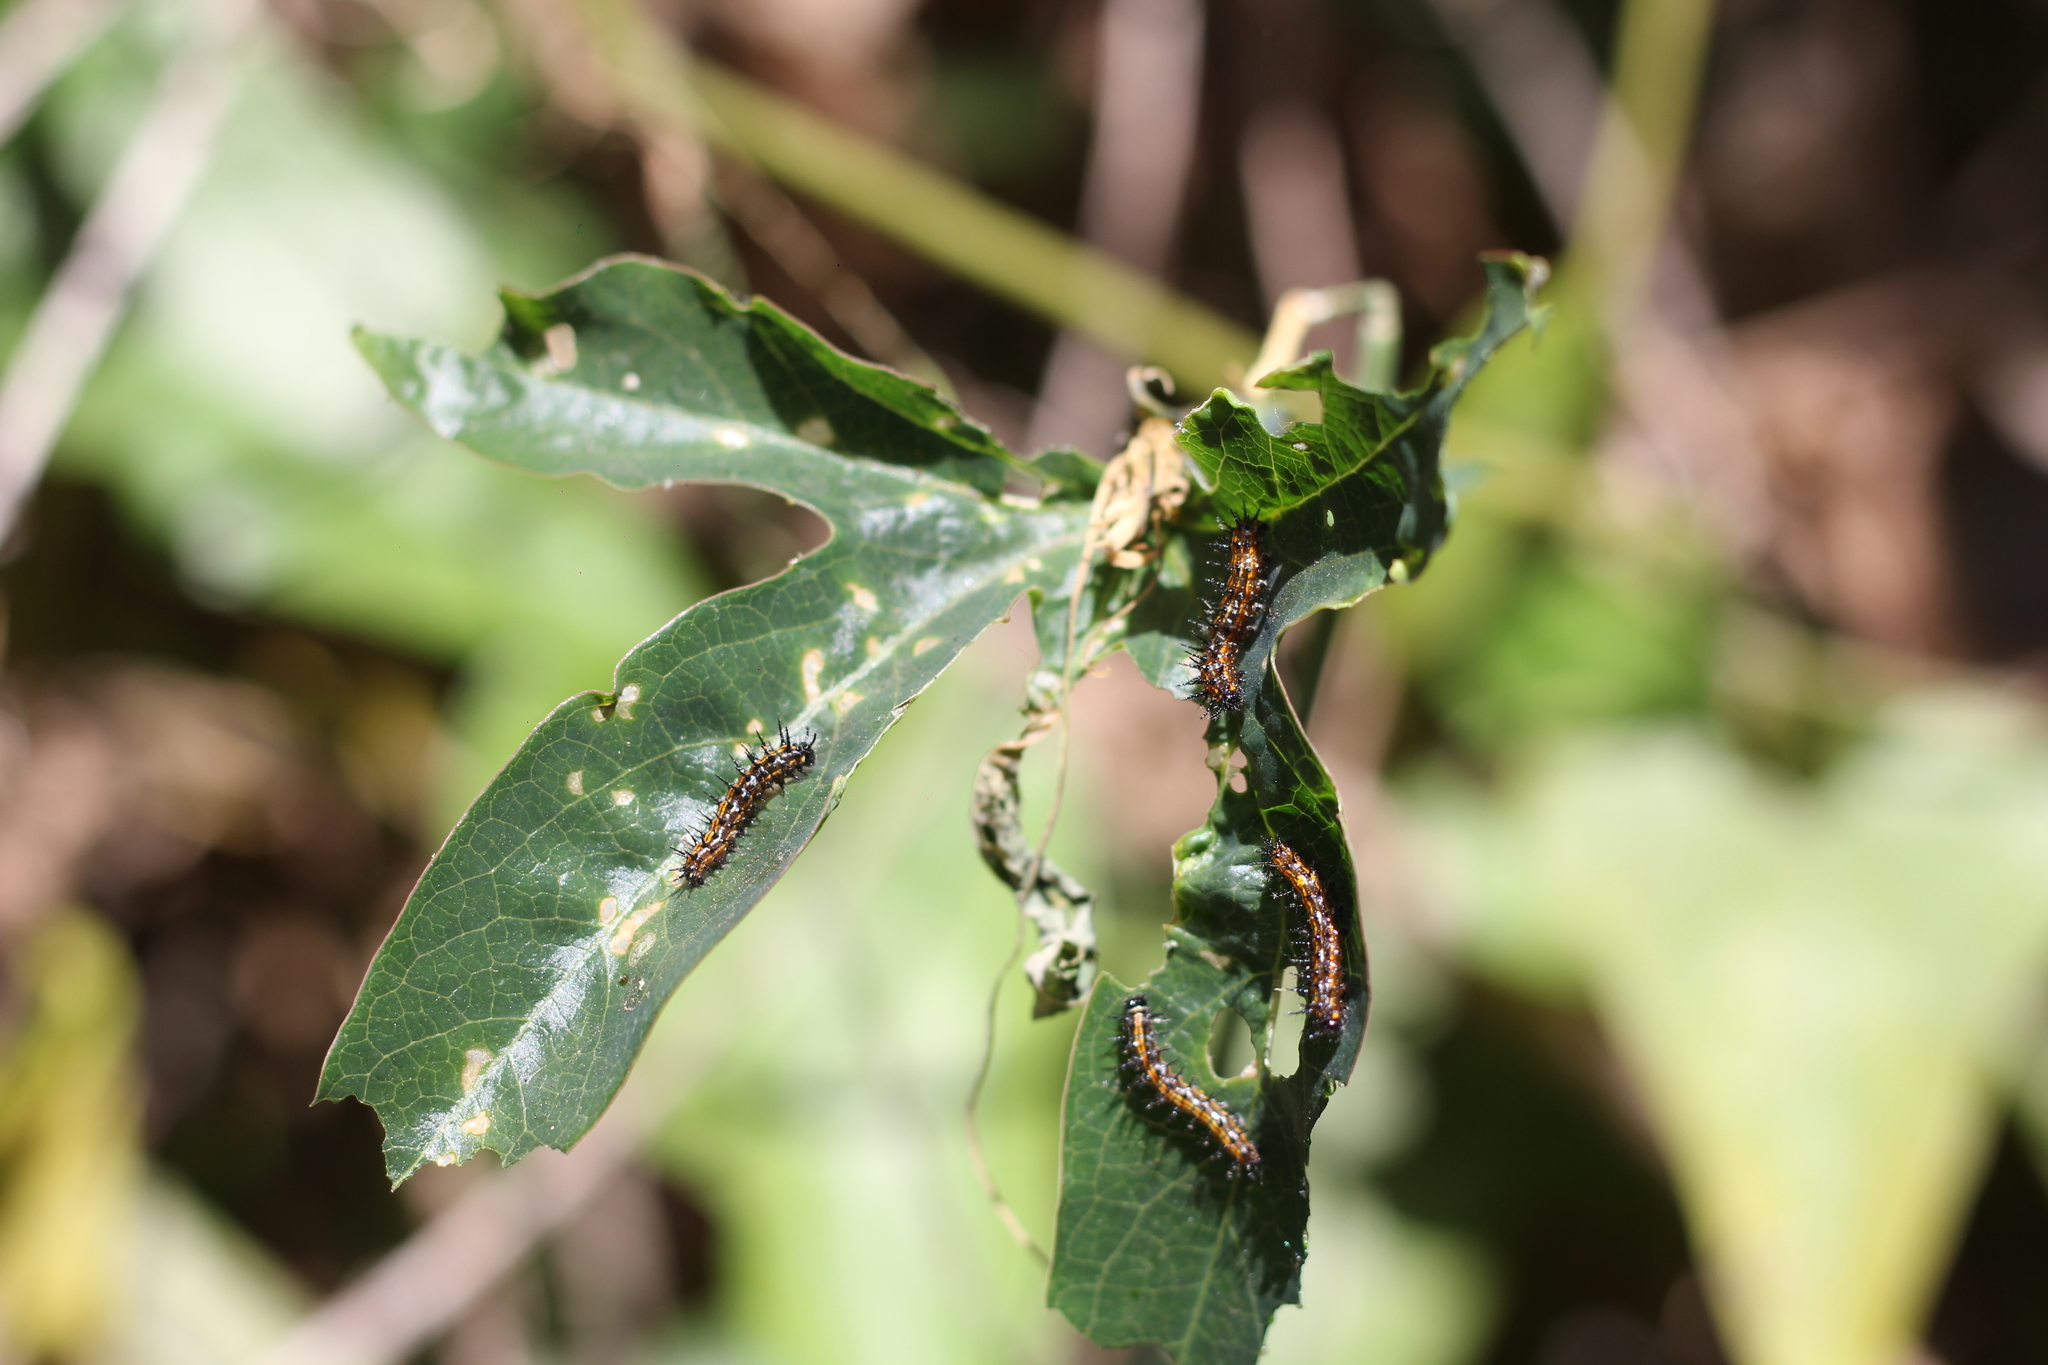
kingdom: Animalia
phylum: Arthropoda
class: Insecta
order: Lepidoptera
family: Nymphalidae
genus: Dione
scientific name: Dione vanillae
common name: Gulf fritillary
